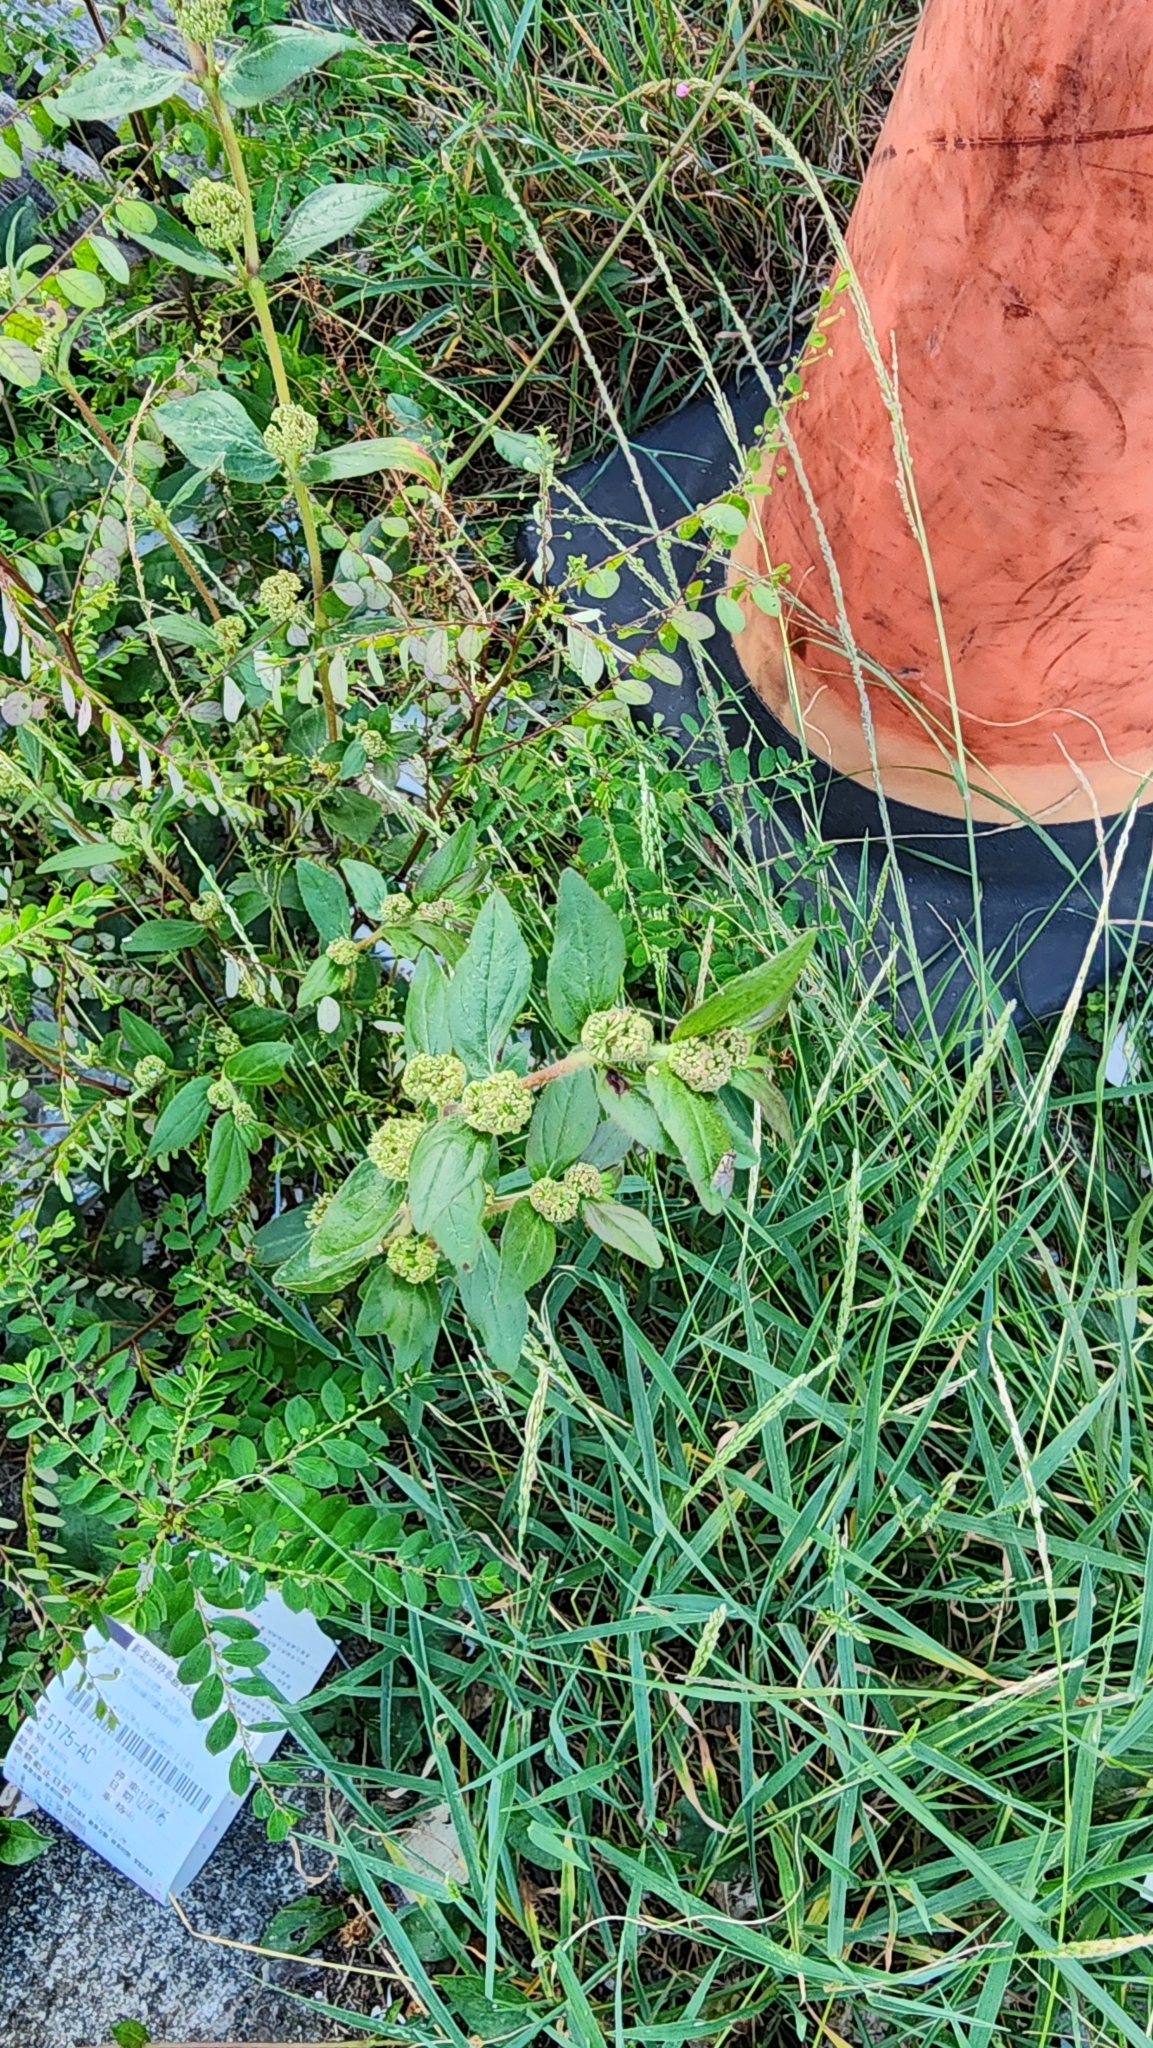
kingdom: Plantae
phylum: Tracheophyta
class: Magnoliopsida
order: Malpighiales
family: Euphorbiaceae
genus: Euphorbia
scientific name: Euphorbia hirta
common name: Pillpod sandmat
